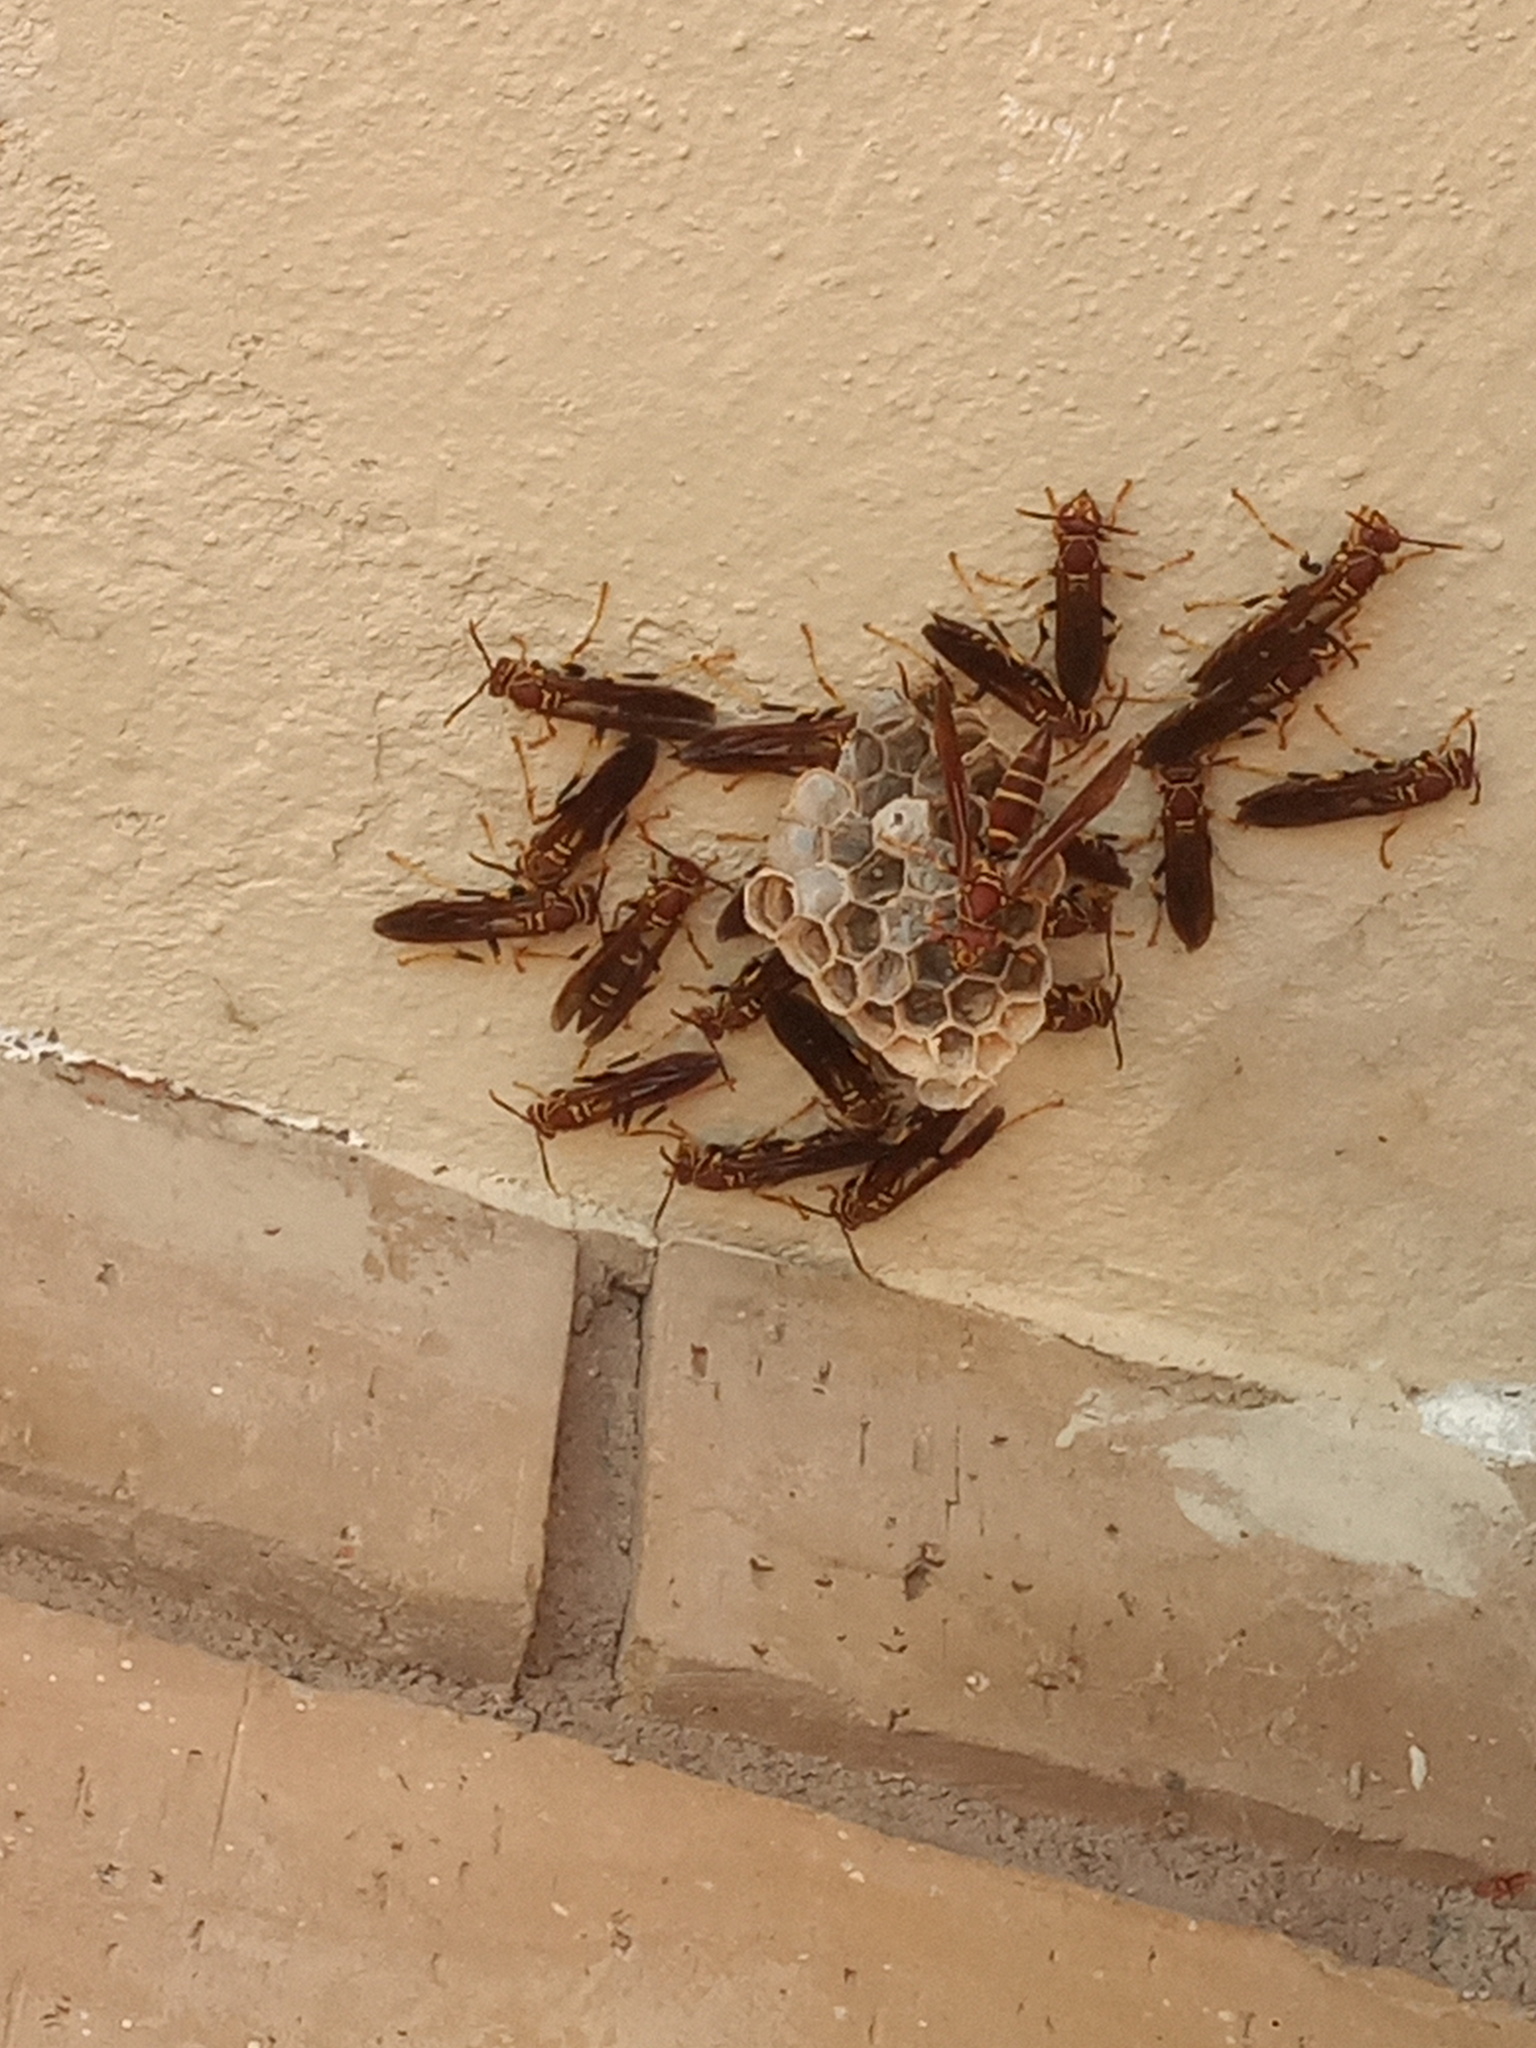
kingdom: Animalia
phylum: Arthropoda
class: Insecta
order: Hymenoptera
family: Eumenidae
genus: Polistes
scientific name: Polistes instabilis
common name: Unstable paper wasp
